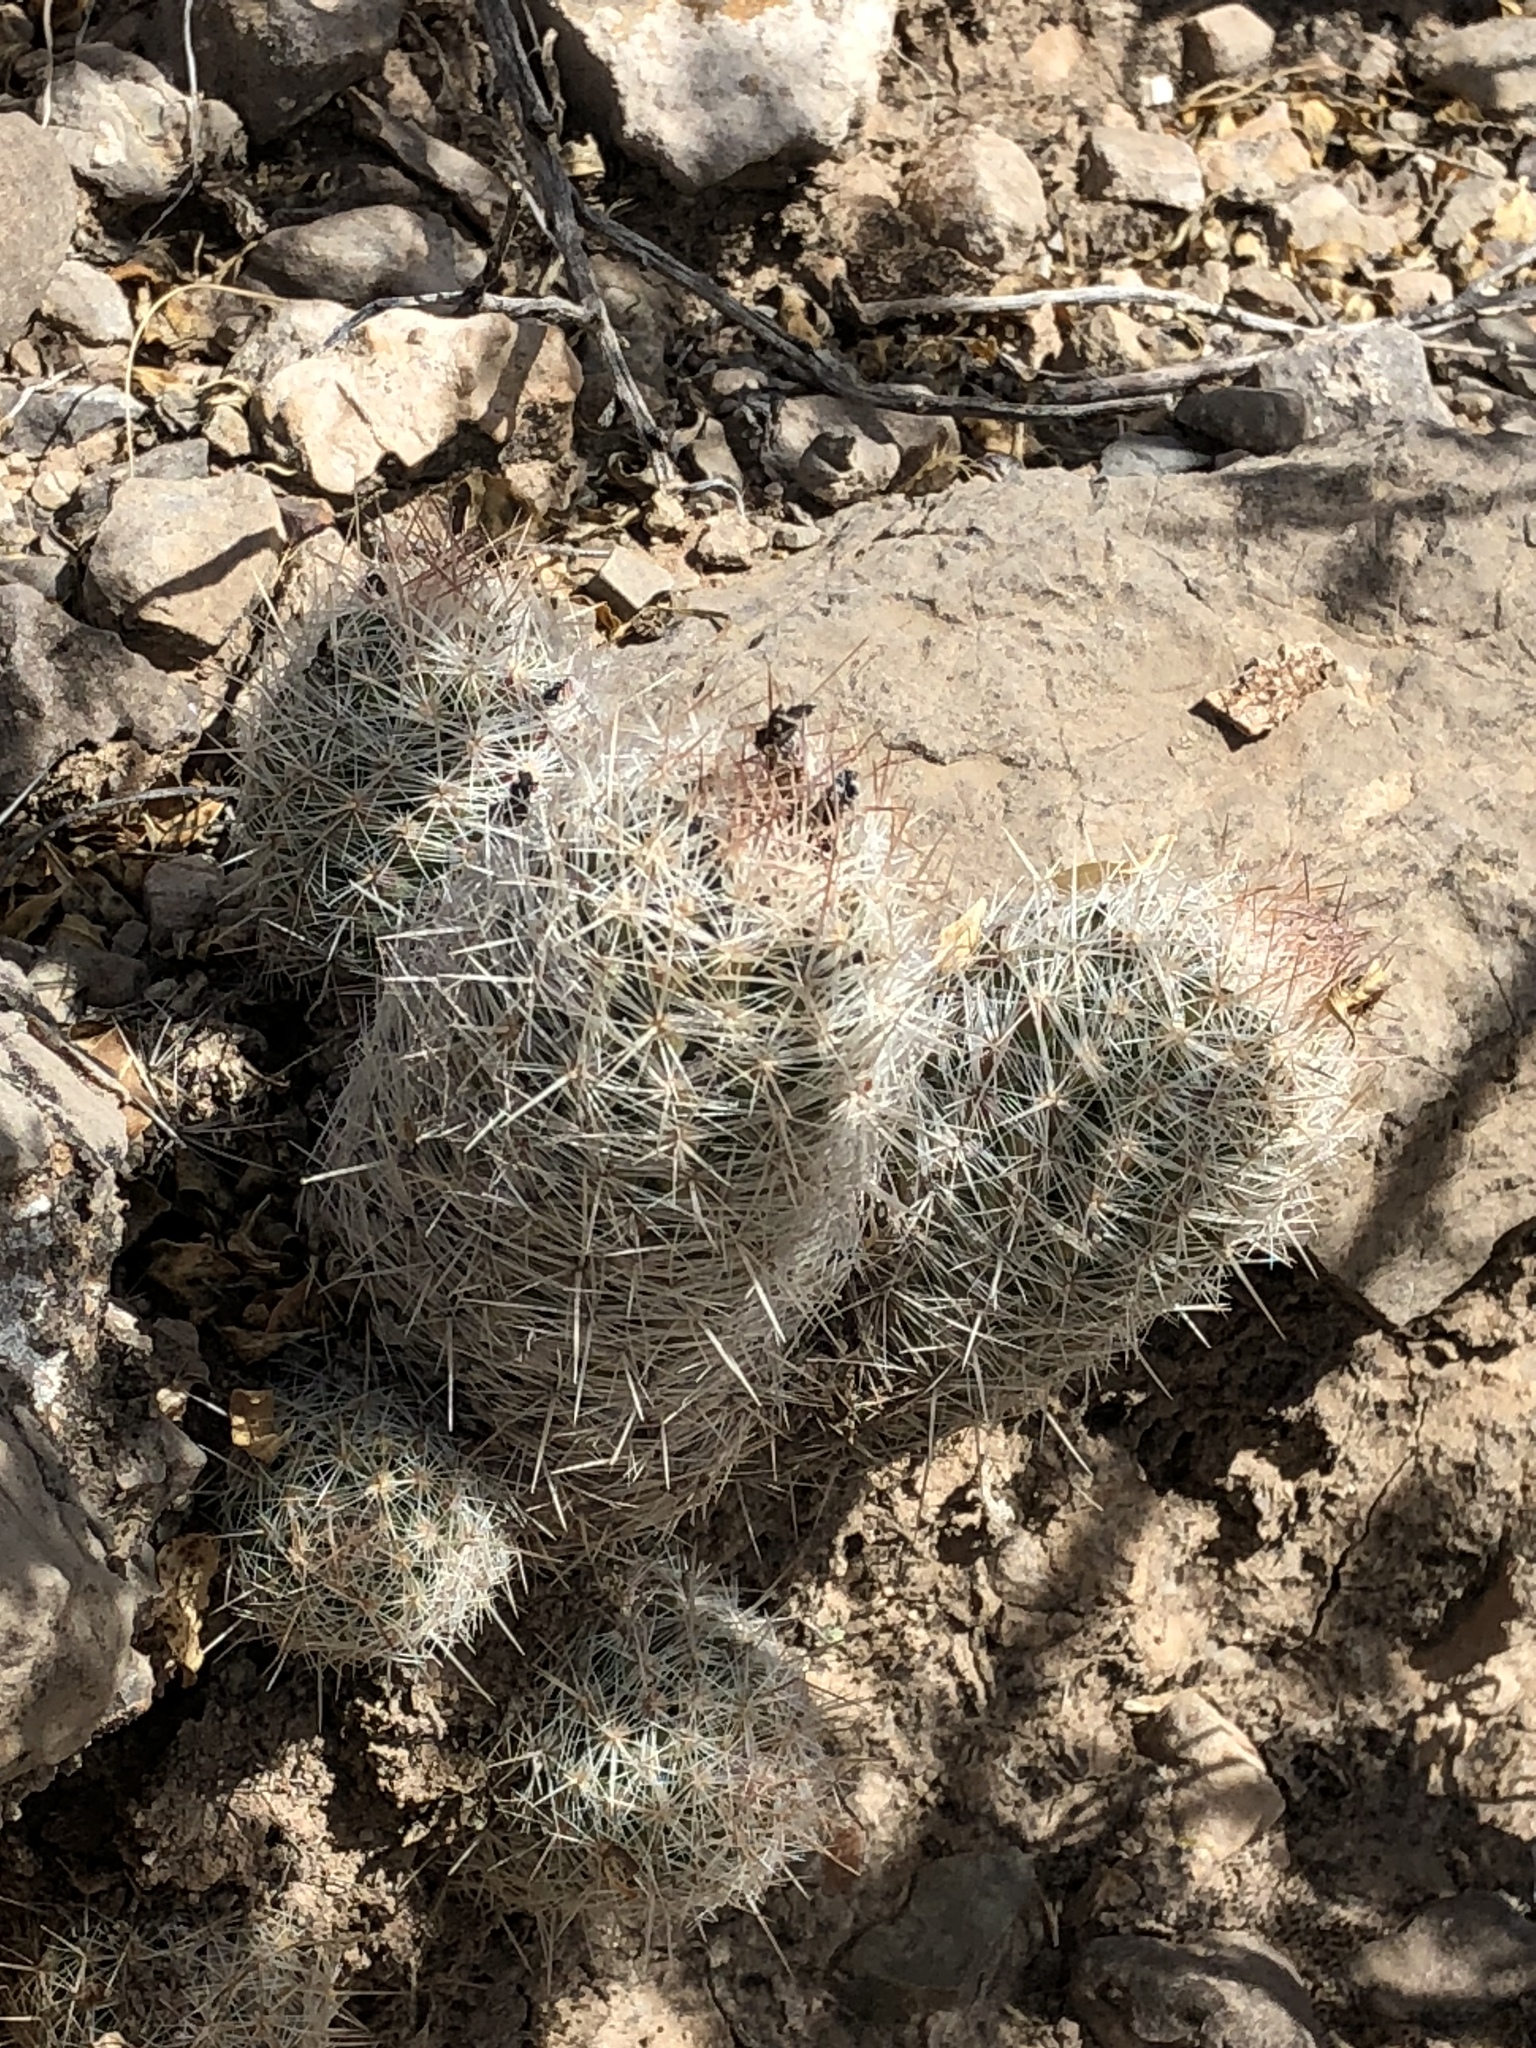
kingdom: Plantae
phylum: Tracheophyta
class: Magnoliopsida
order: Caryophyllales
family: Cactaceae
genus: Pelecyphora
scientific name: Pelecyphora tuberculosa
